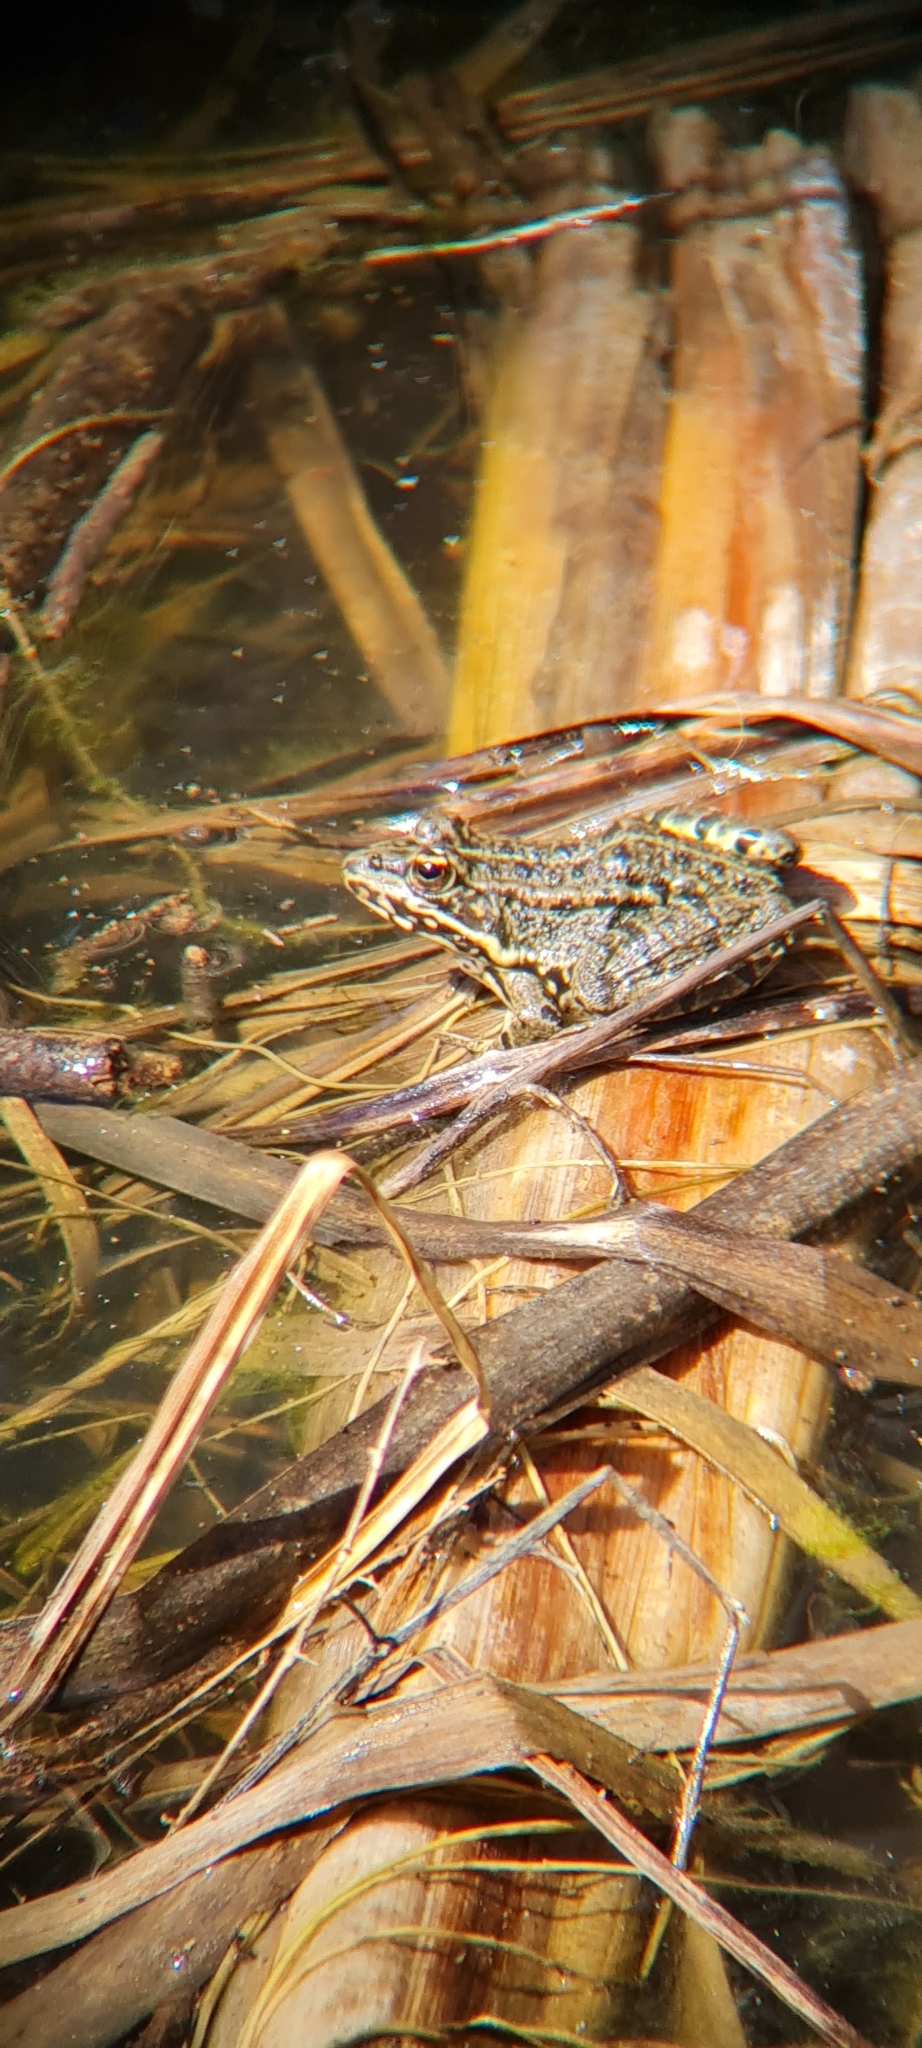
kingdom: Animalia
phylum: Chordata
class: Amphibia
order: Anura
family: Ranidae
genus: Pelophylax
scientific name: Pelophylax
